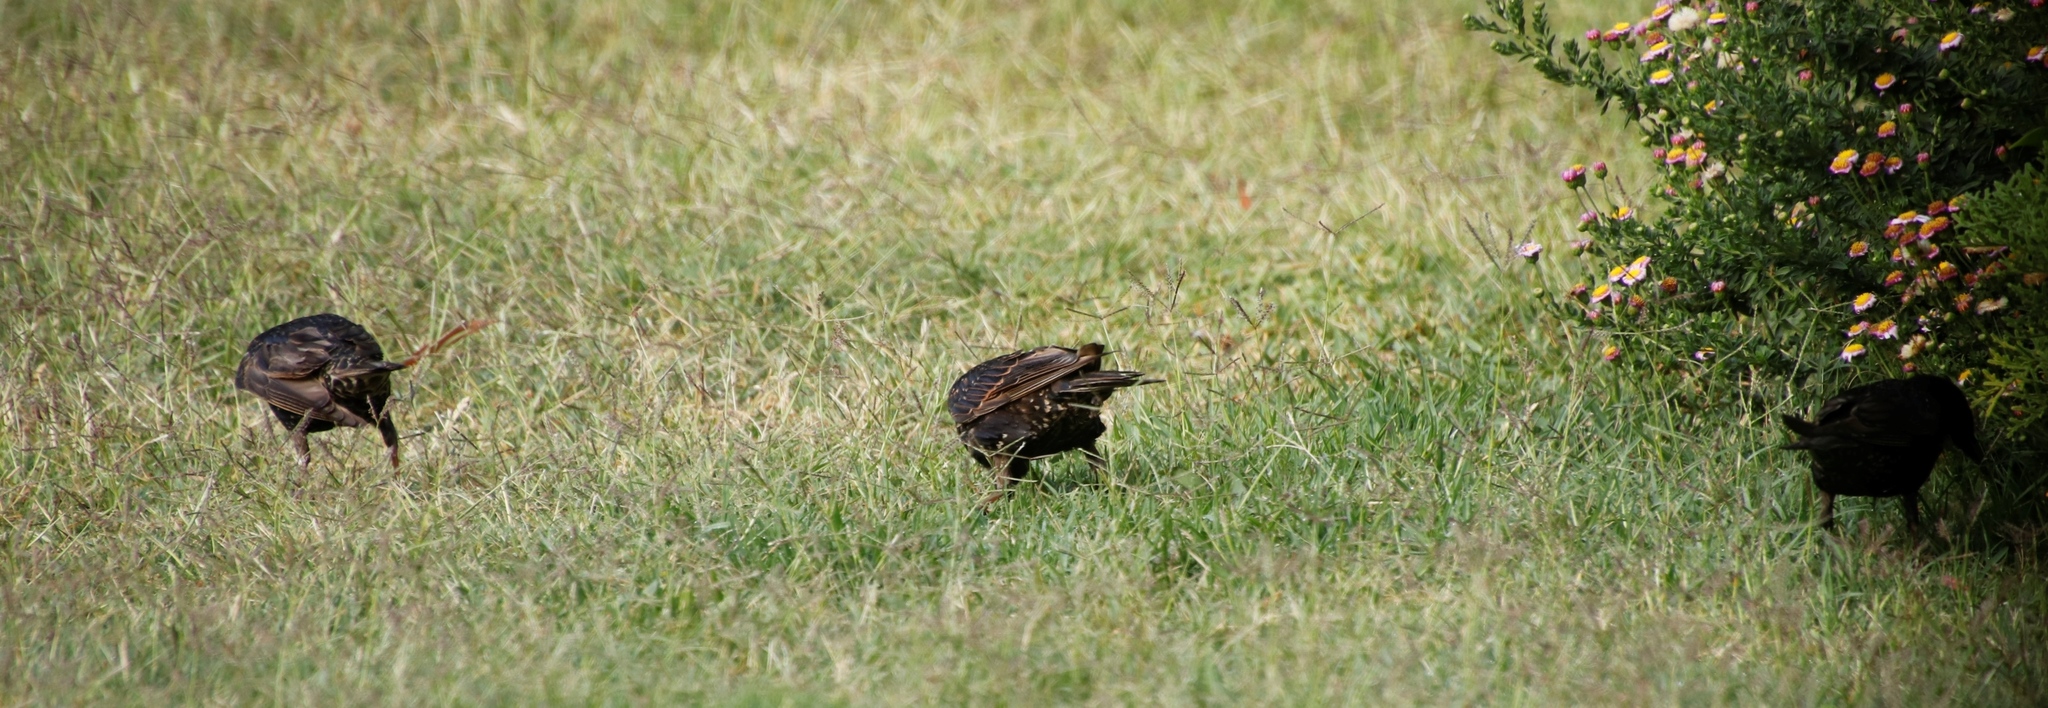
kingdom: Animalia
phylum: Chordata
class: Aves
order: Passeriformes
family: Sturnidae
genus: Sturnus
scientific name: Sturnus vulgaris
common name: Common starling
